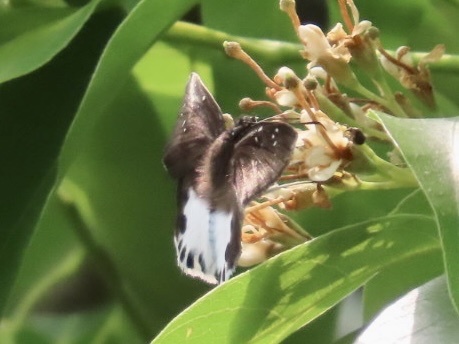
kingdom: Animalia
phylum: Arthropoda
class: Insecta
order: Lepidoptera
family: Hesperiidae
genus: Tagiades
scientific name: Tagiades litigiosa
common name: Water snow flat
